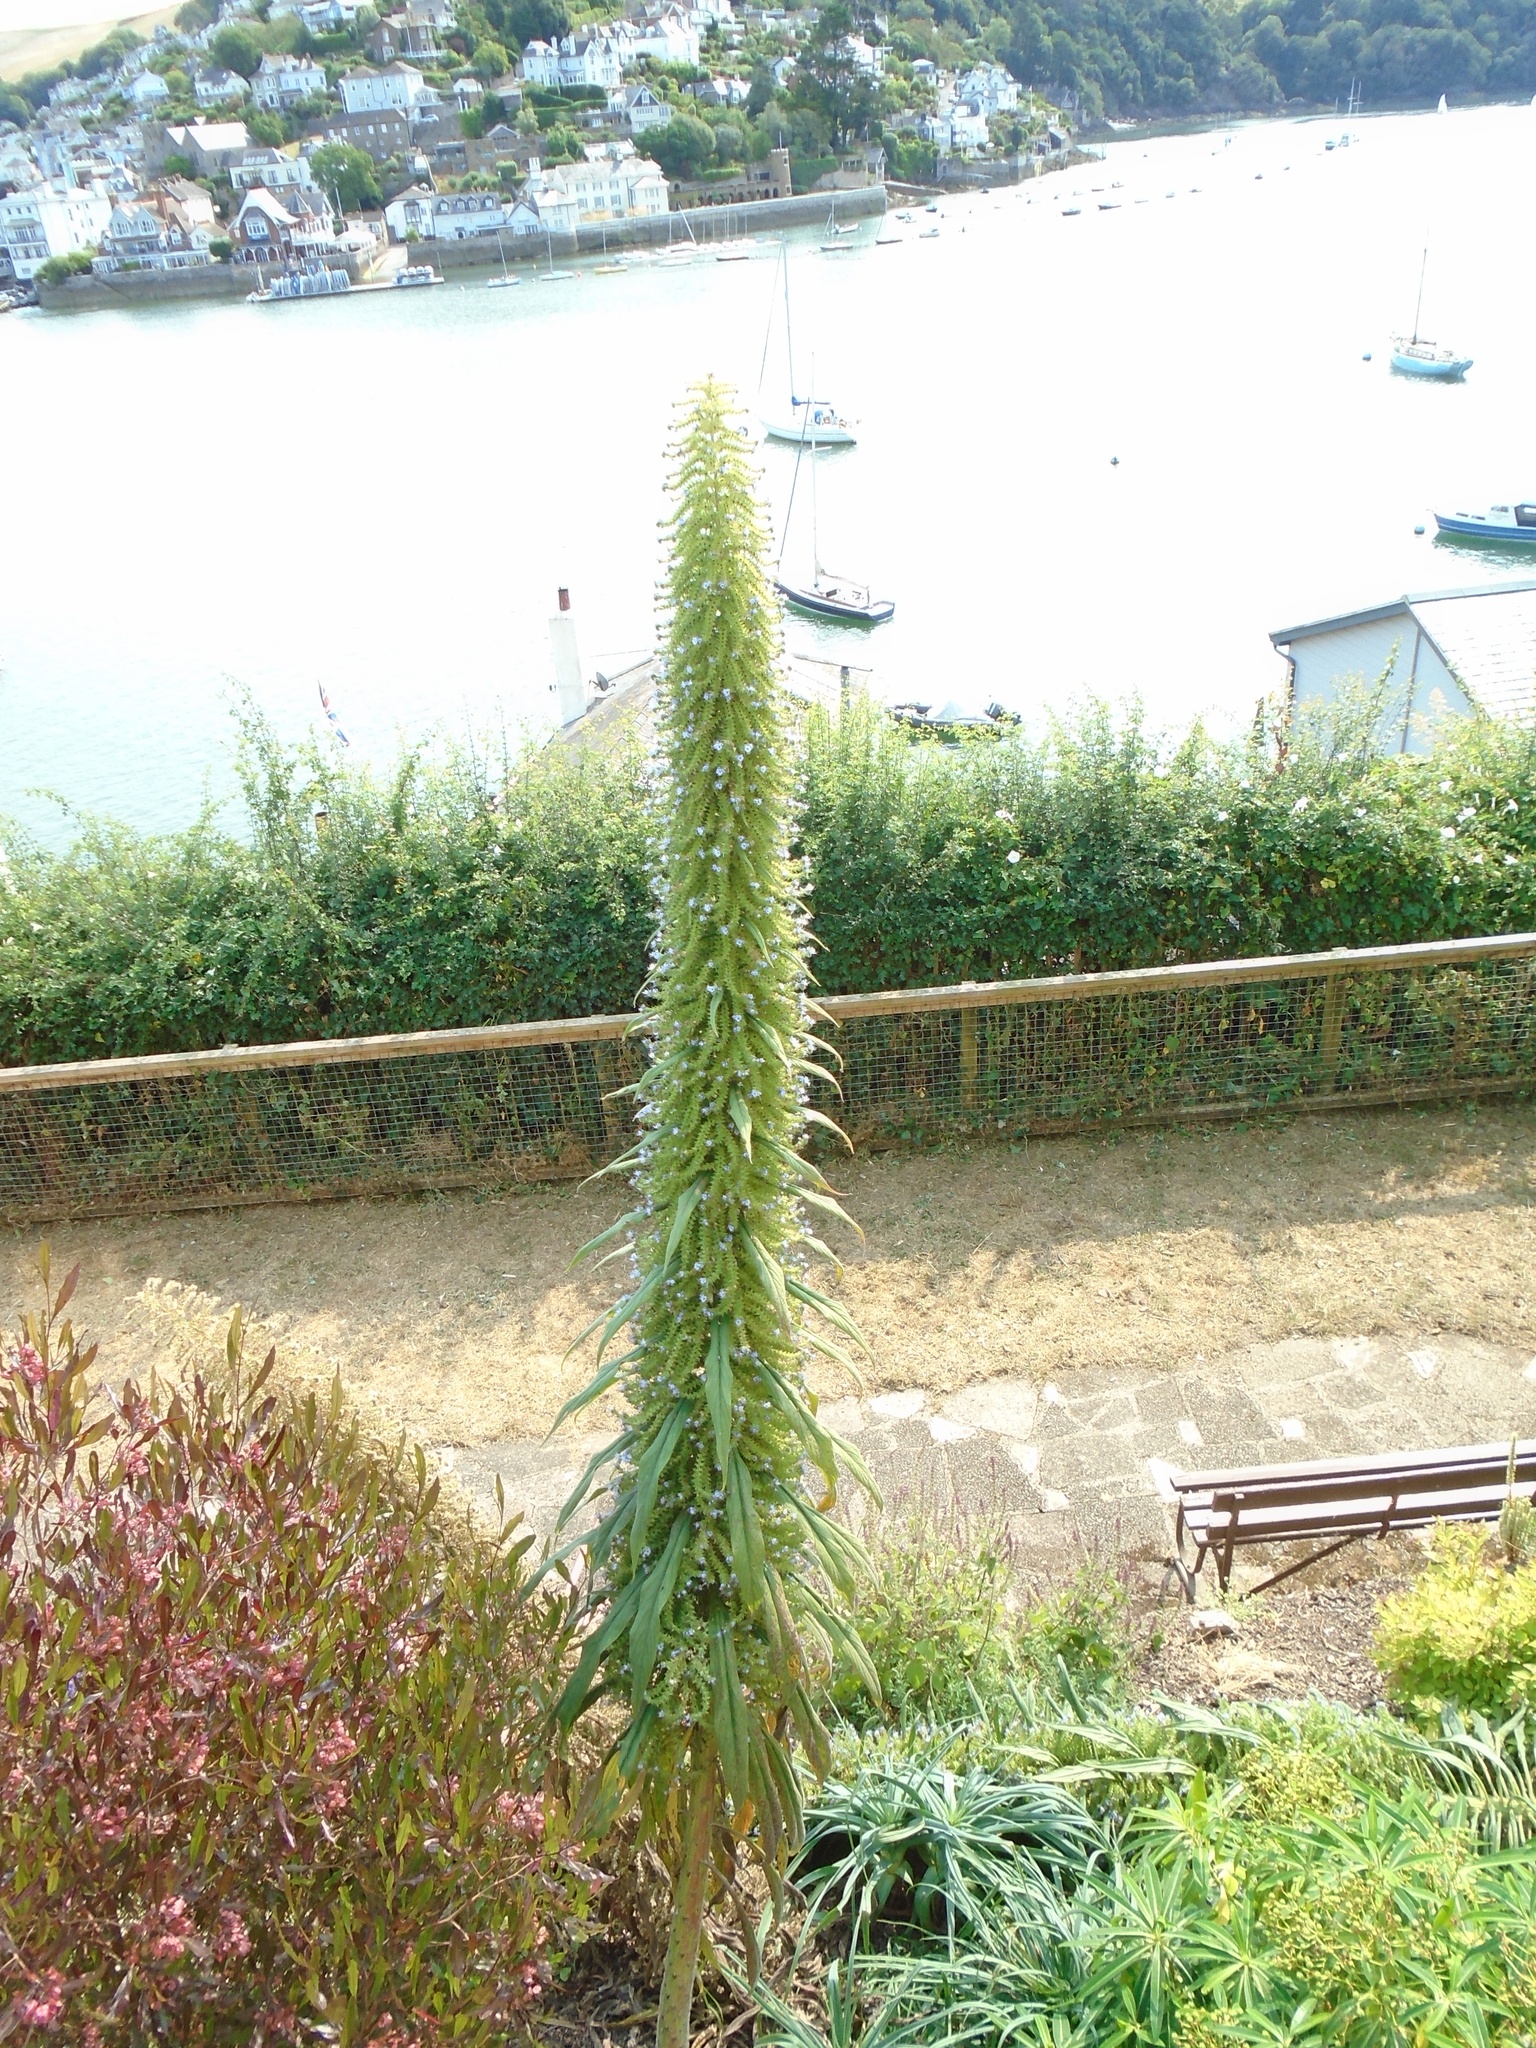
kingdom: Plantae
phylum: Tracheophyta
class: Magnoliopsida
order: Boraginales
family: Boraginaceae
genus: Echium
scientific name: Echium pininana
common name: Giant viper's-bugloss
